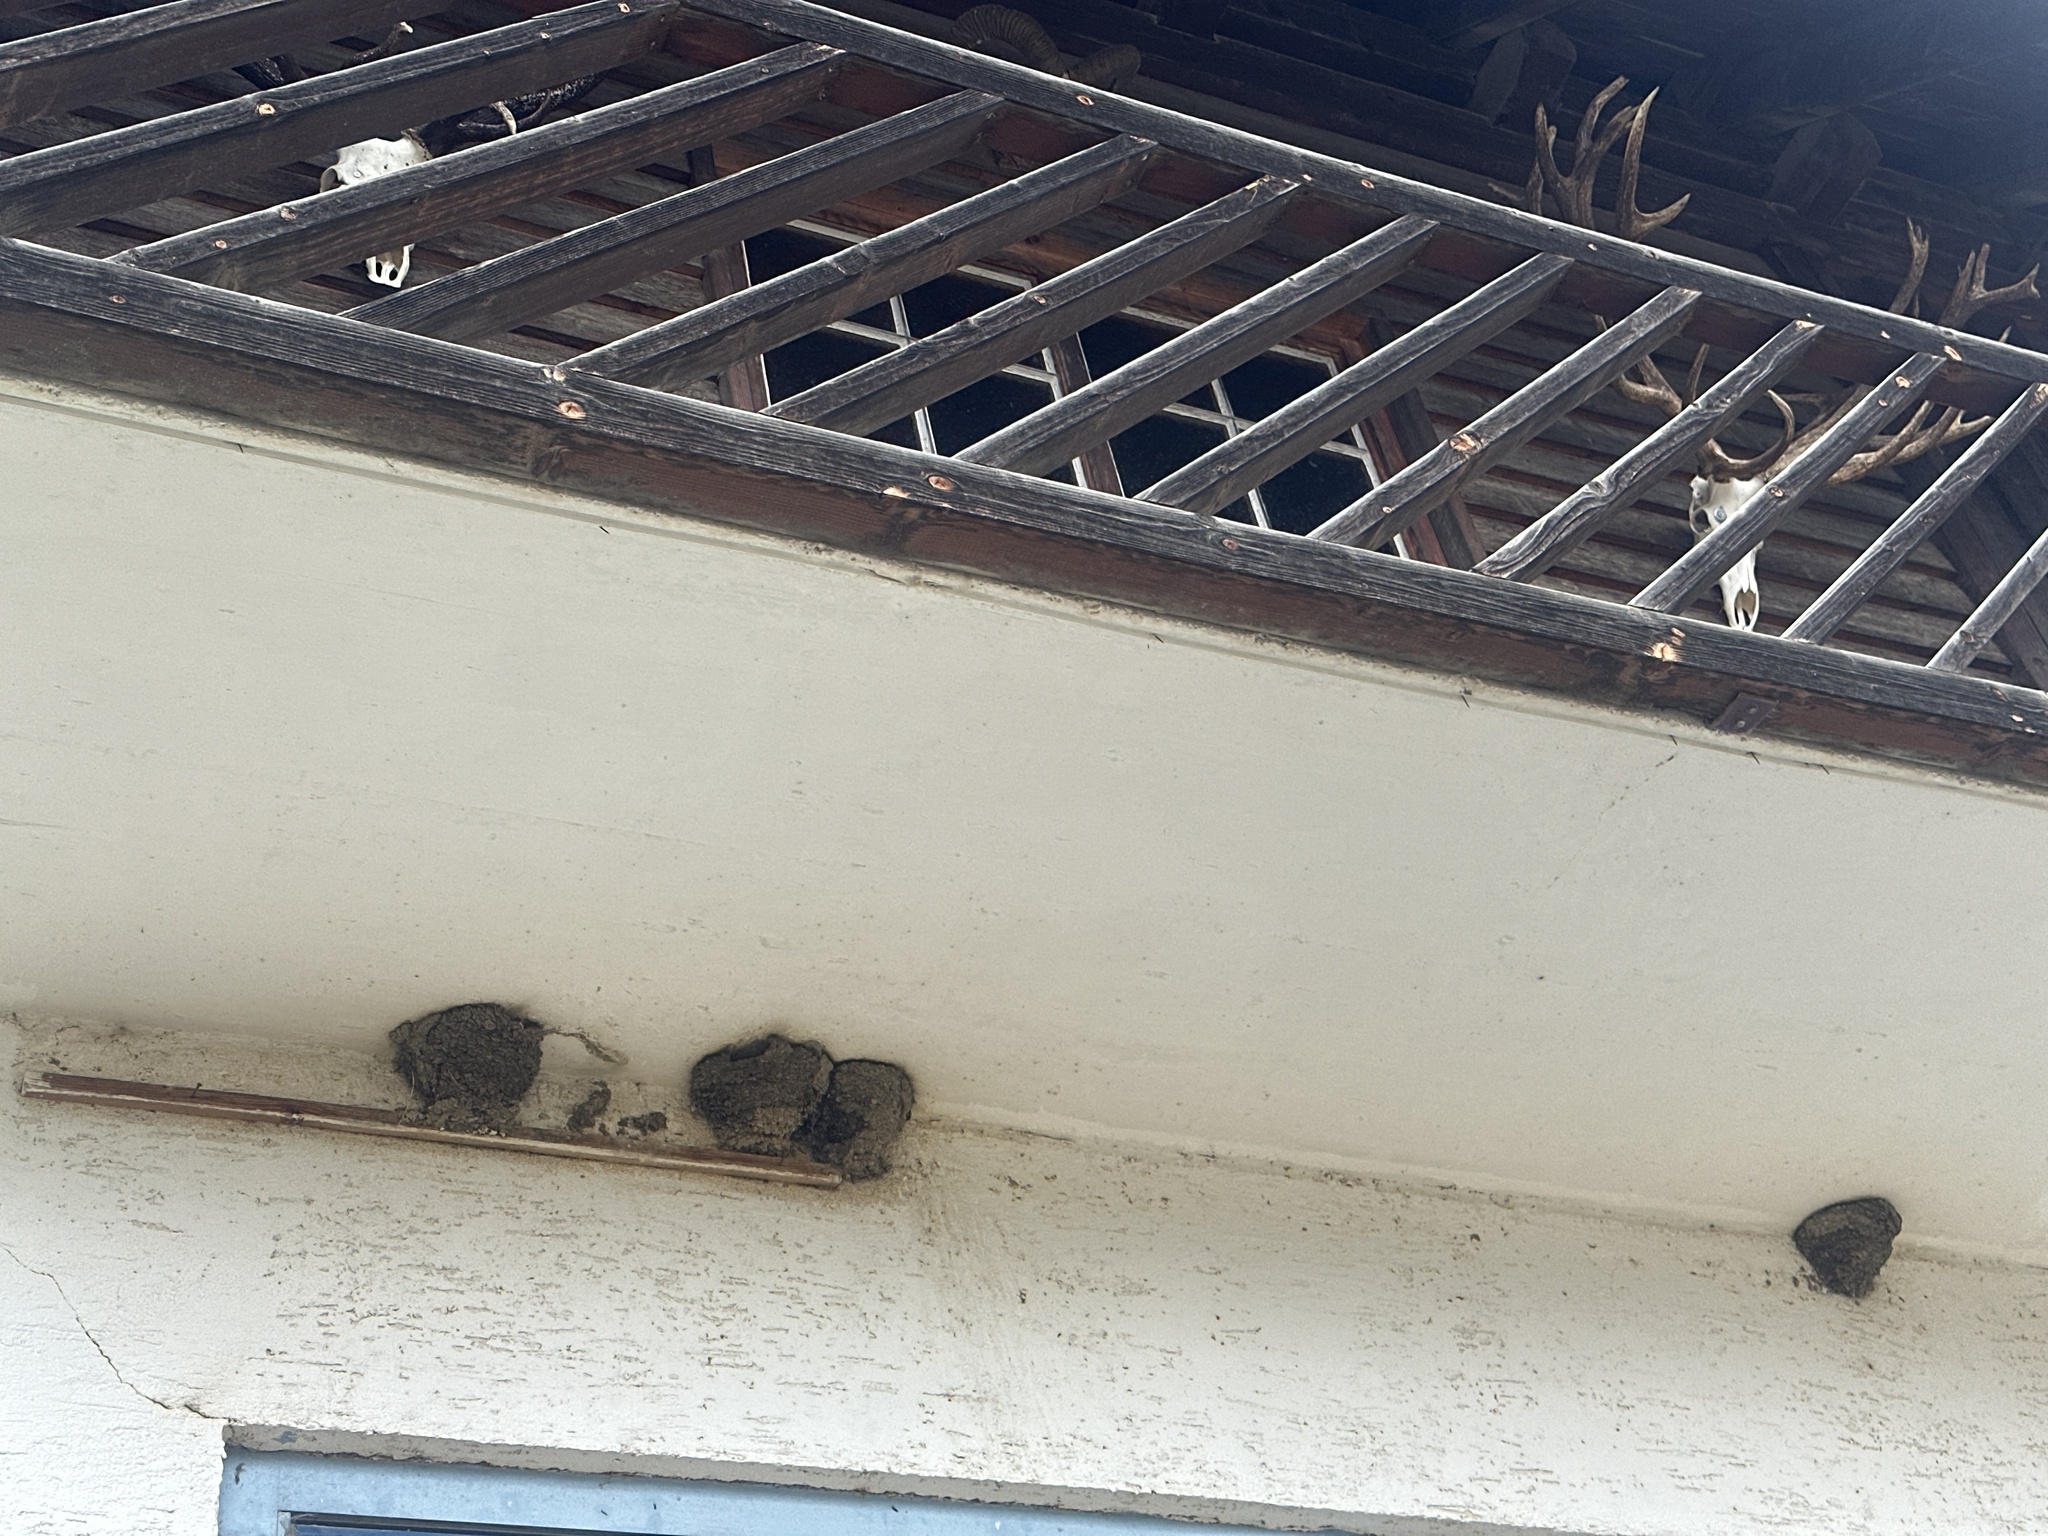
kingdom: Animalia
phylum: Chordata
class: Aves
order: Passeriformes
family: Hirundinidae
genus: Delichon
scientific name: Delichon urbicum
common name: Common house martin
